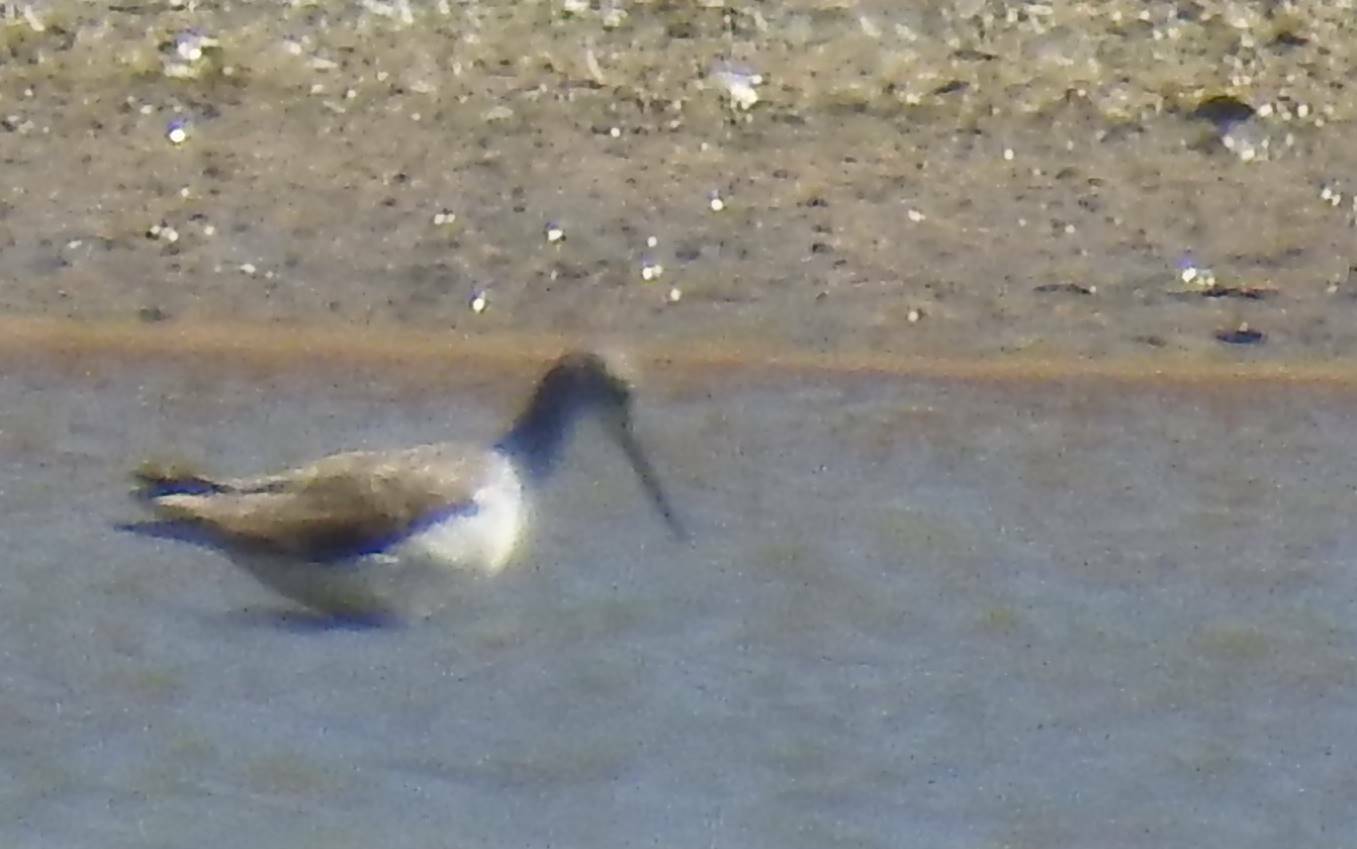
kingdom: Animalia
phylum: Chordata
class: Aves
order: Charadriiformes
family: Scolopacidae
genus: Tringa
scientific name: Tringa nebularia
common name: Common greenshank
